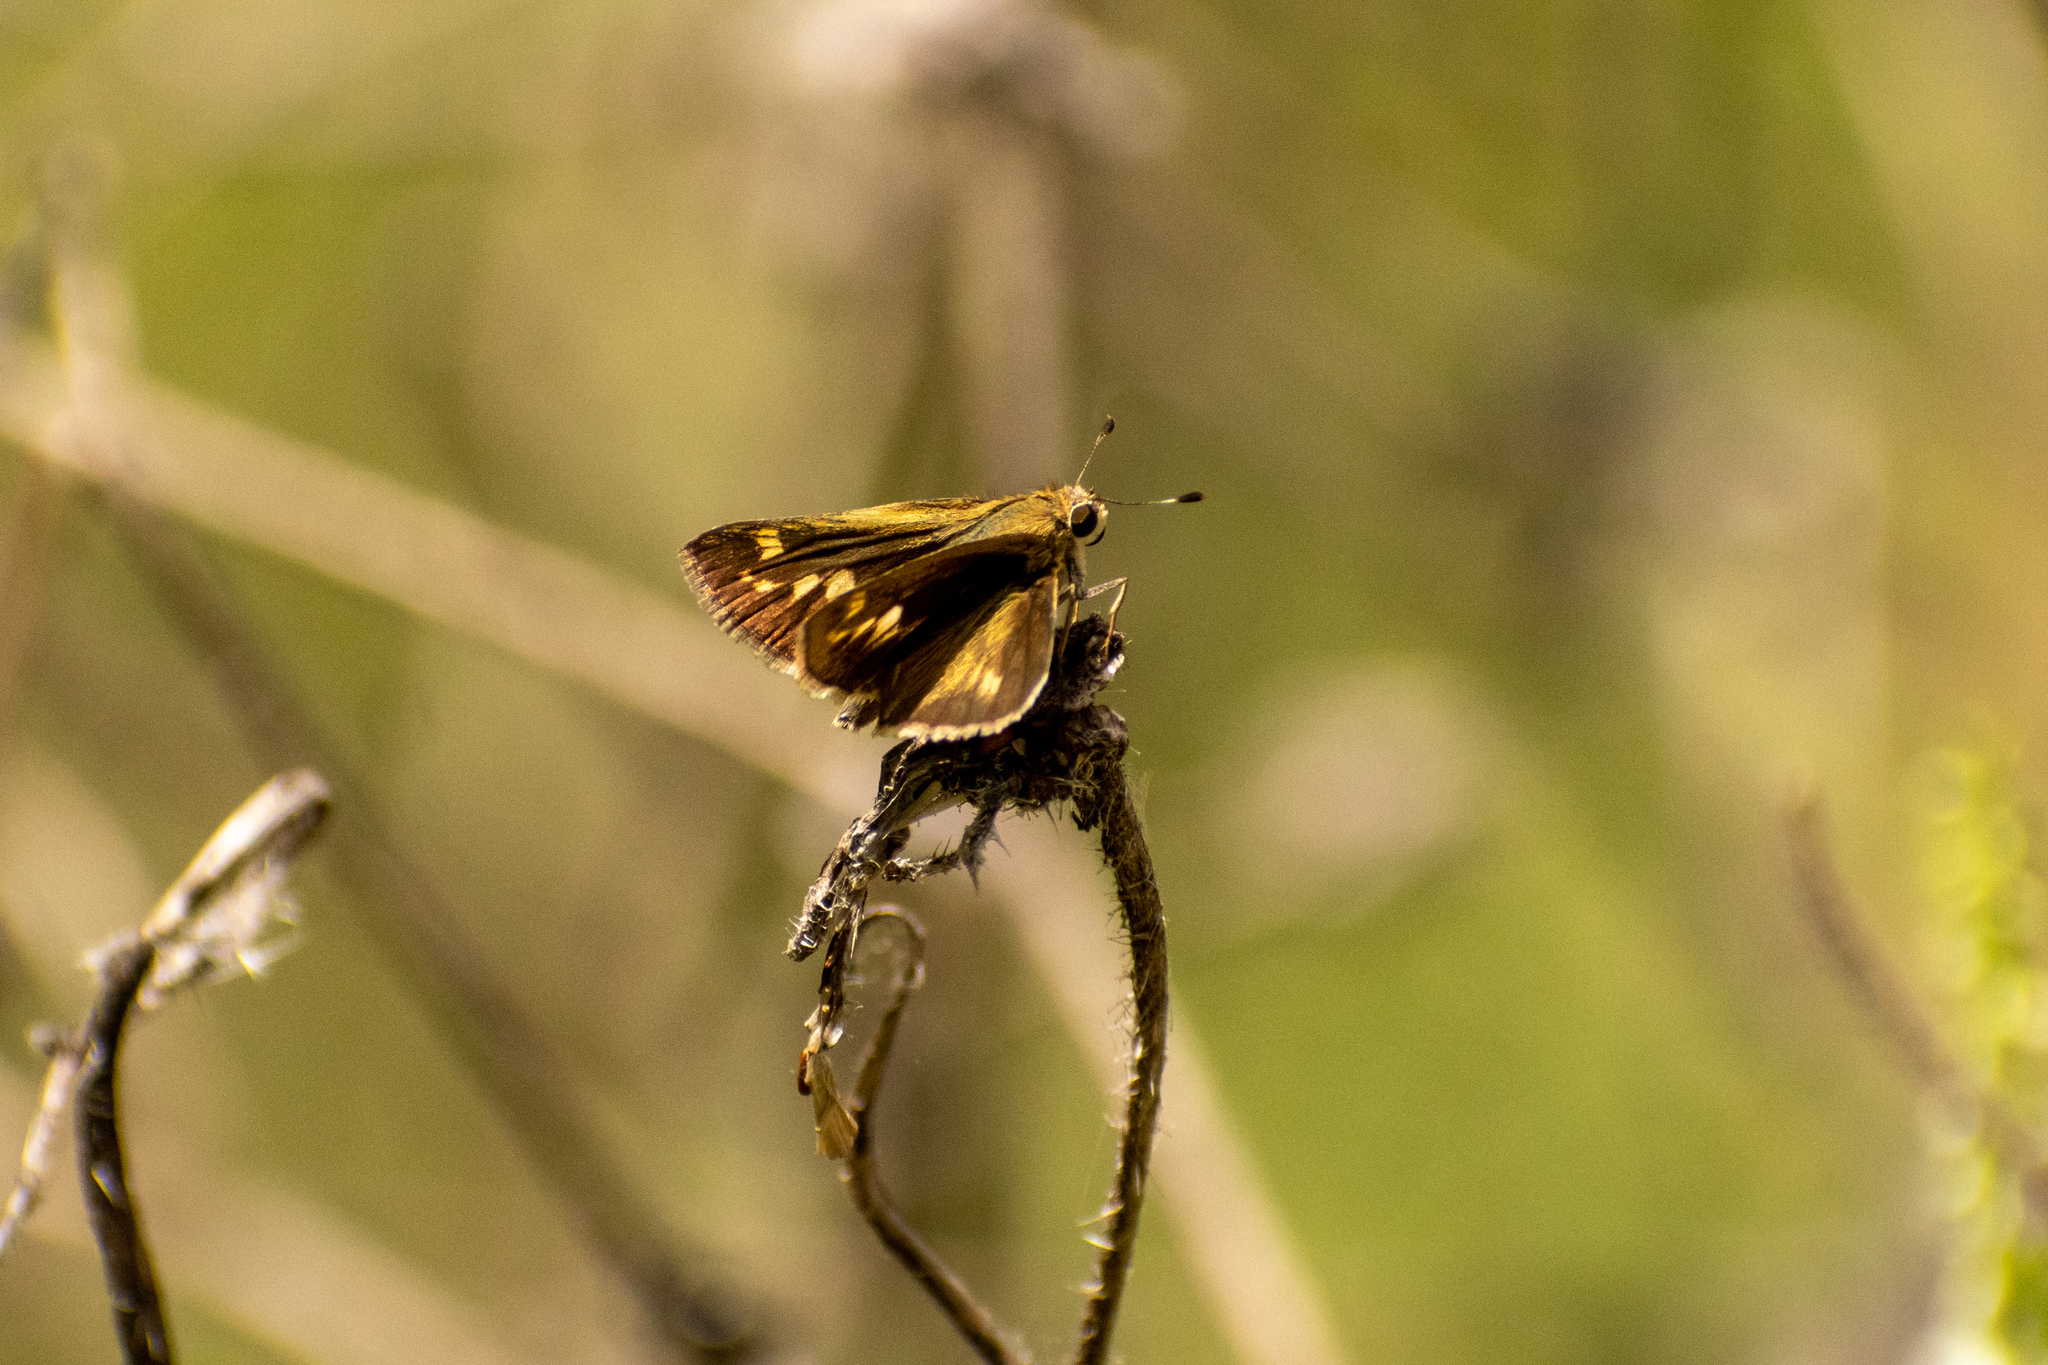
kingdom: Animalia
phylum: Arthropoda
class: Insecta
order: Lepidoptera
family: Hesperiidae
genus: Polites
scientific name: Polites vibex
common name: Whirlabout
